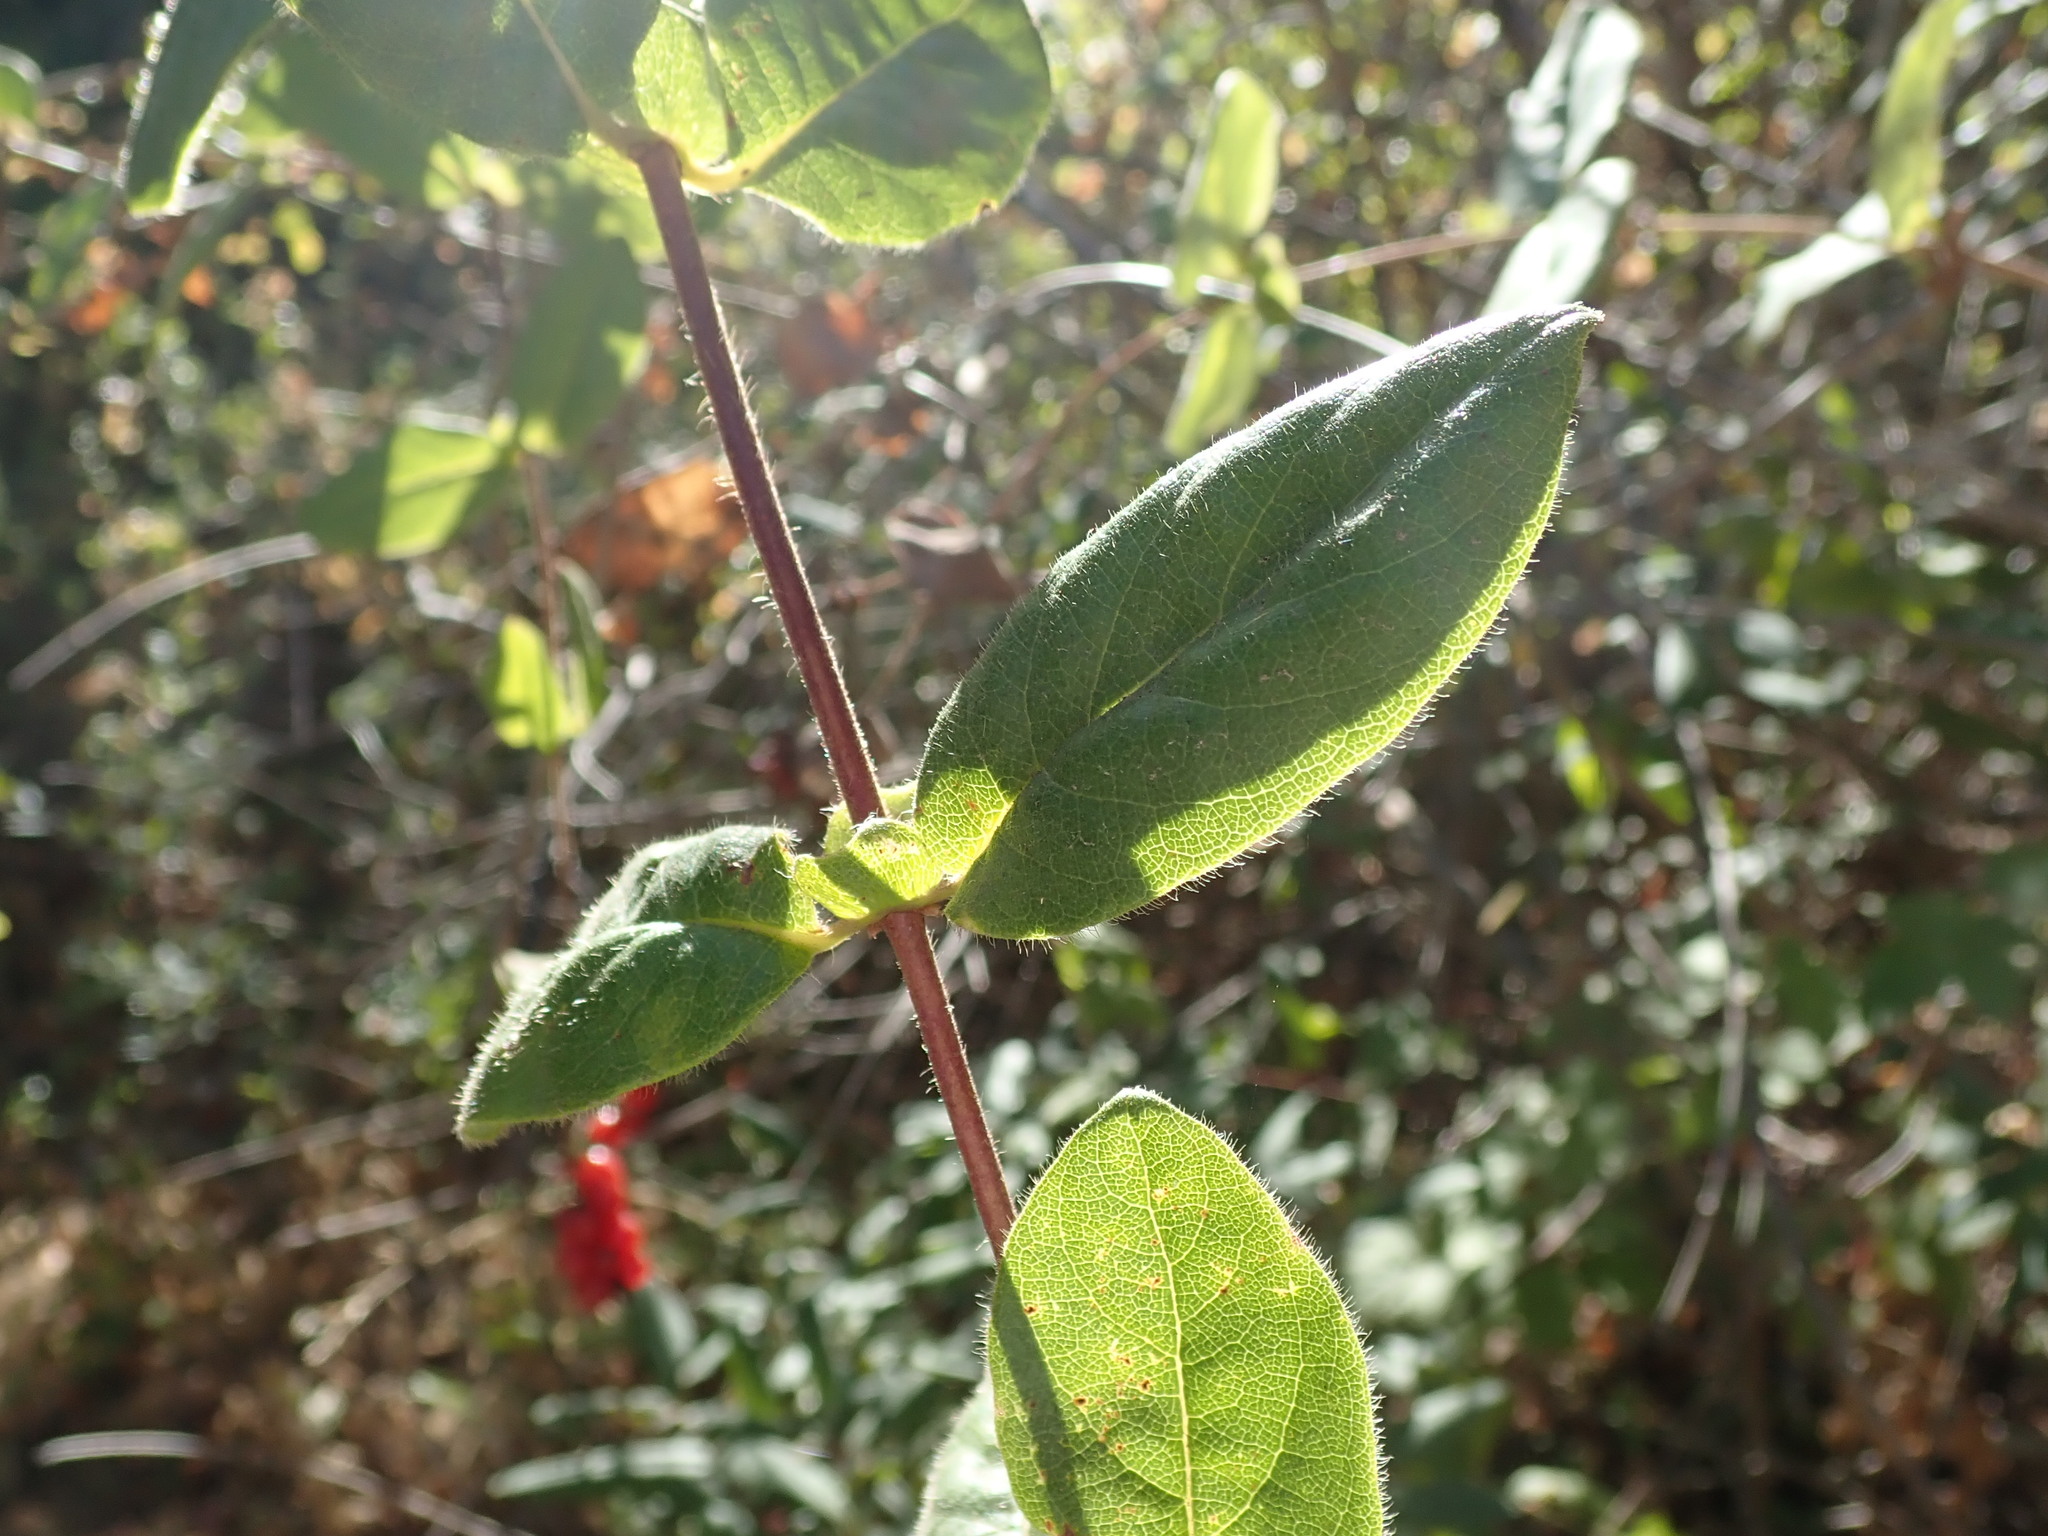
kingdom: Plantae
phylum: Tracheophyta
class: Magnoliopsida
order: Dipsacales
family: Caprifoliaceae
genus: Lonicera
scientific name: Lonicera hispidula
